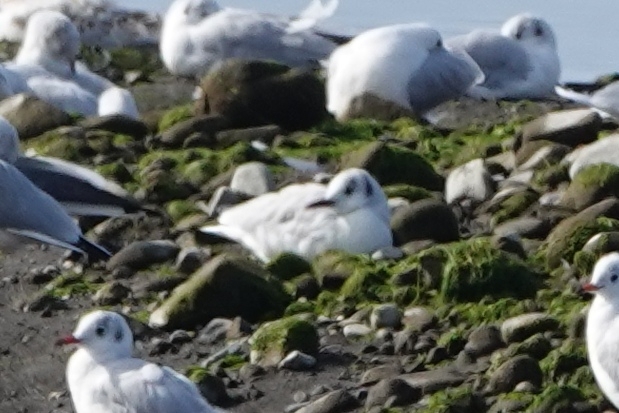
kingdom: Animalia
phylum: Chordata
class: Aves
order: Charadriiformes
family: Laridae
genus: Chroicocephalus
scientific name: Chroicocephalus ridibundus
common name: Black-headed gull
